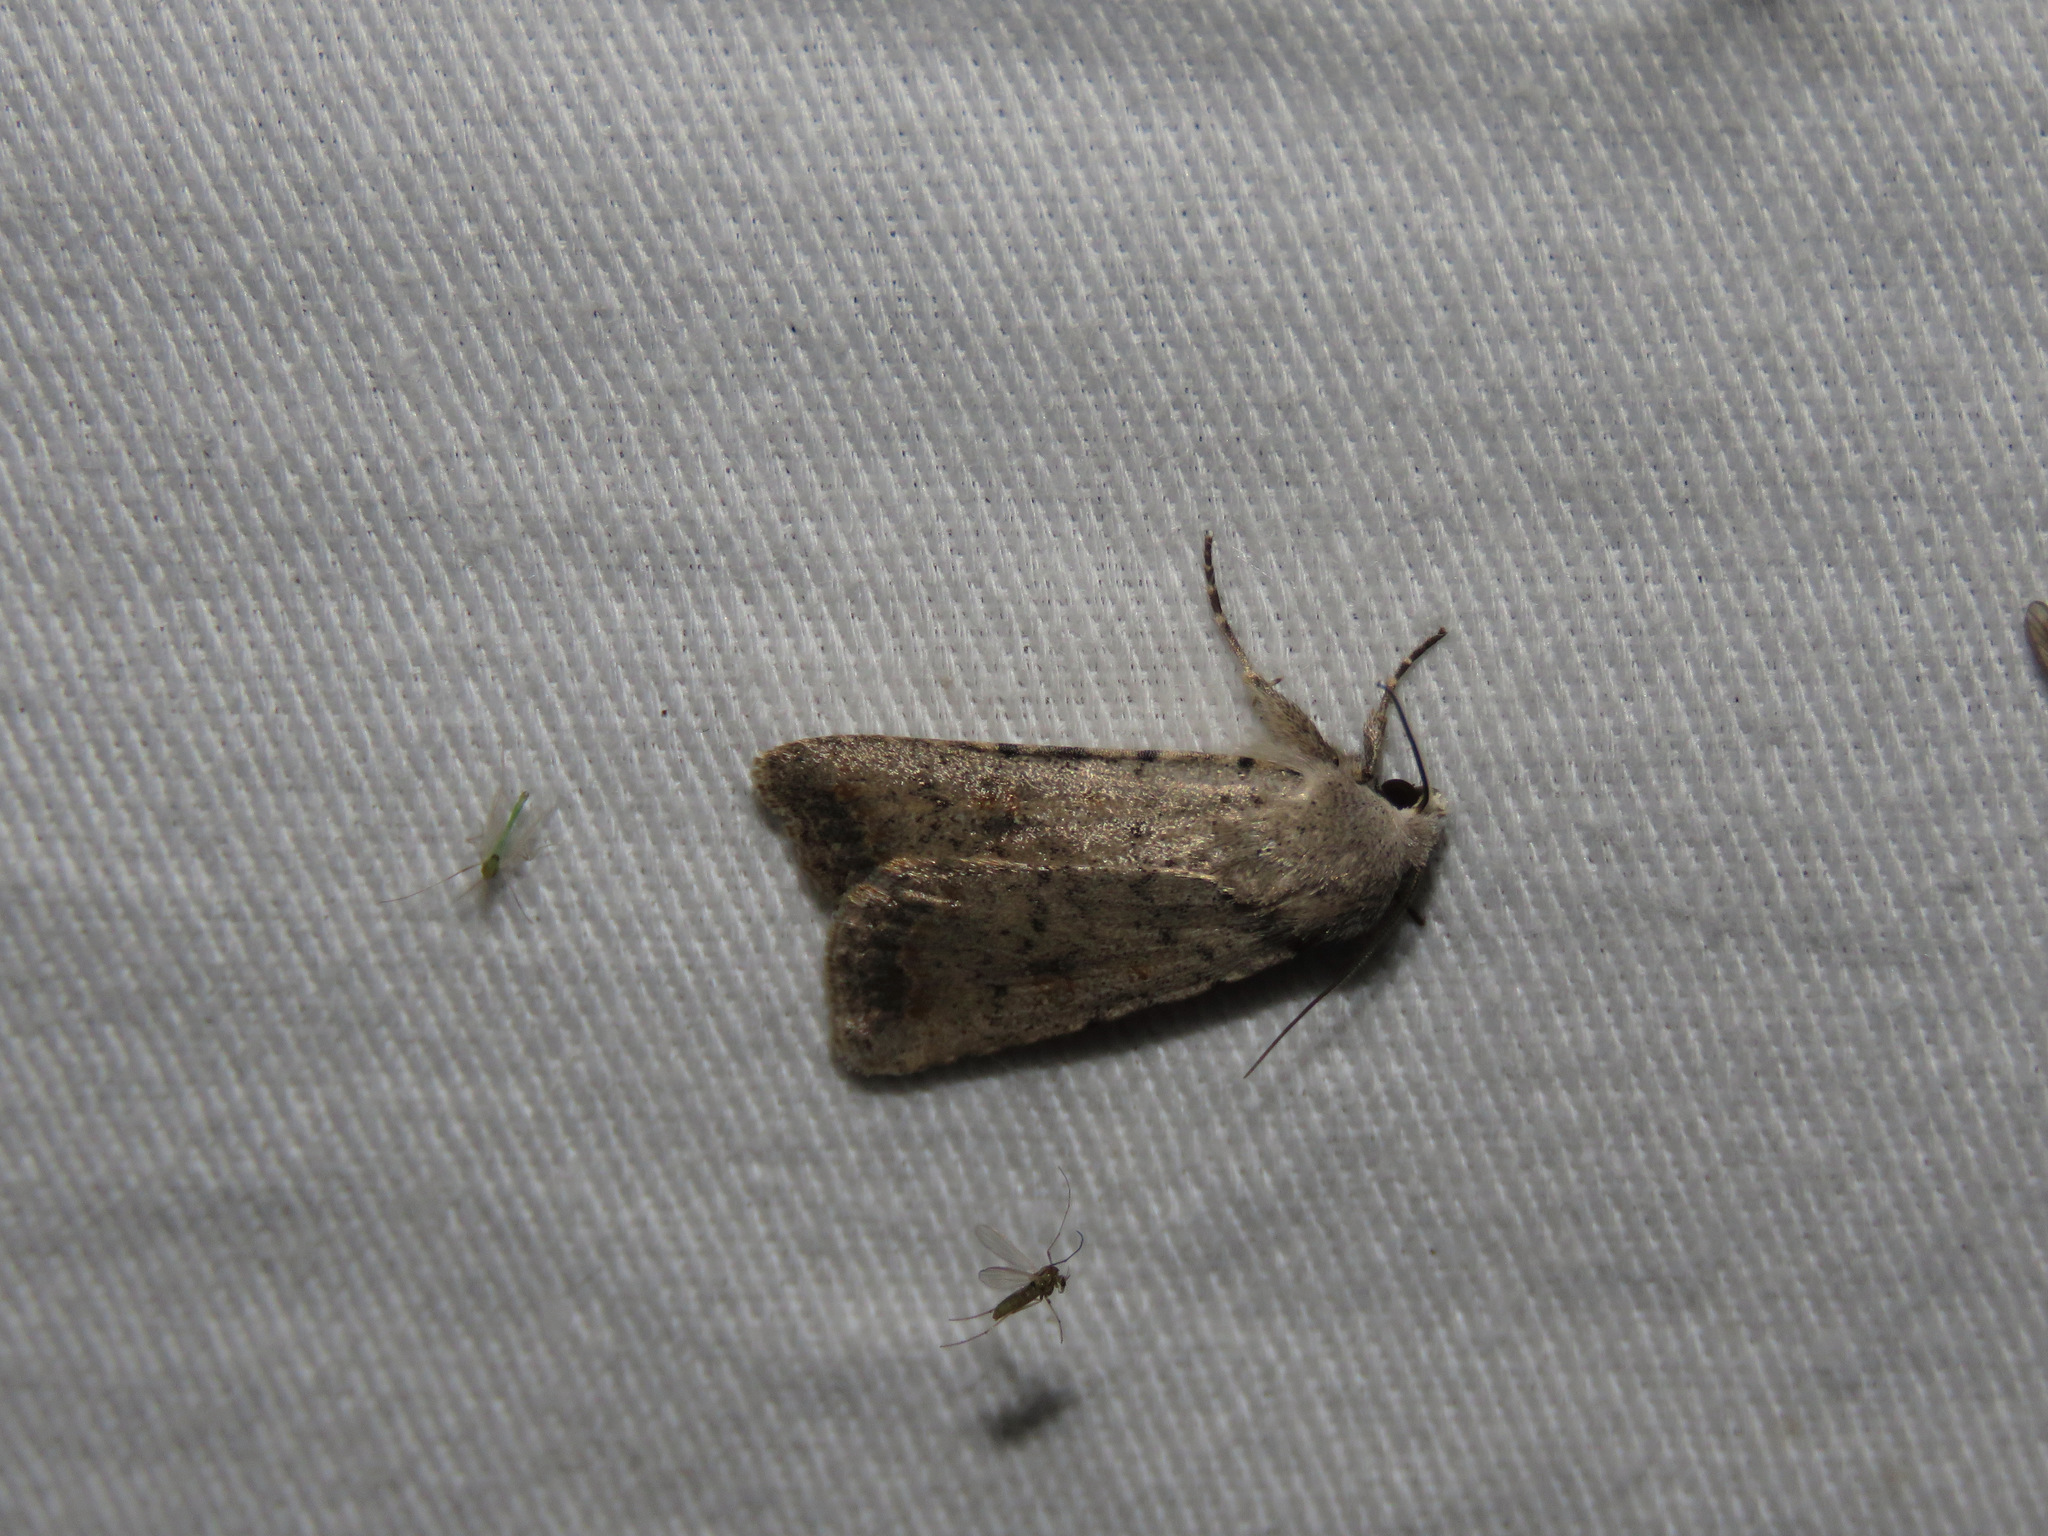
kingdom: Animalia
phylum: Arthropoda
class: Insecta
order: Lepidoptera
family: Noctuidae
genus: Caradrina
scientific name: Caradrina montana
